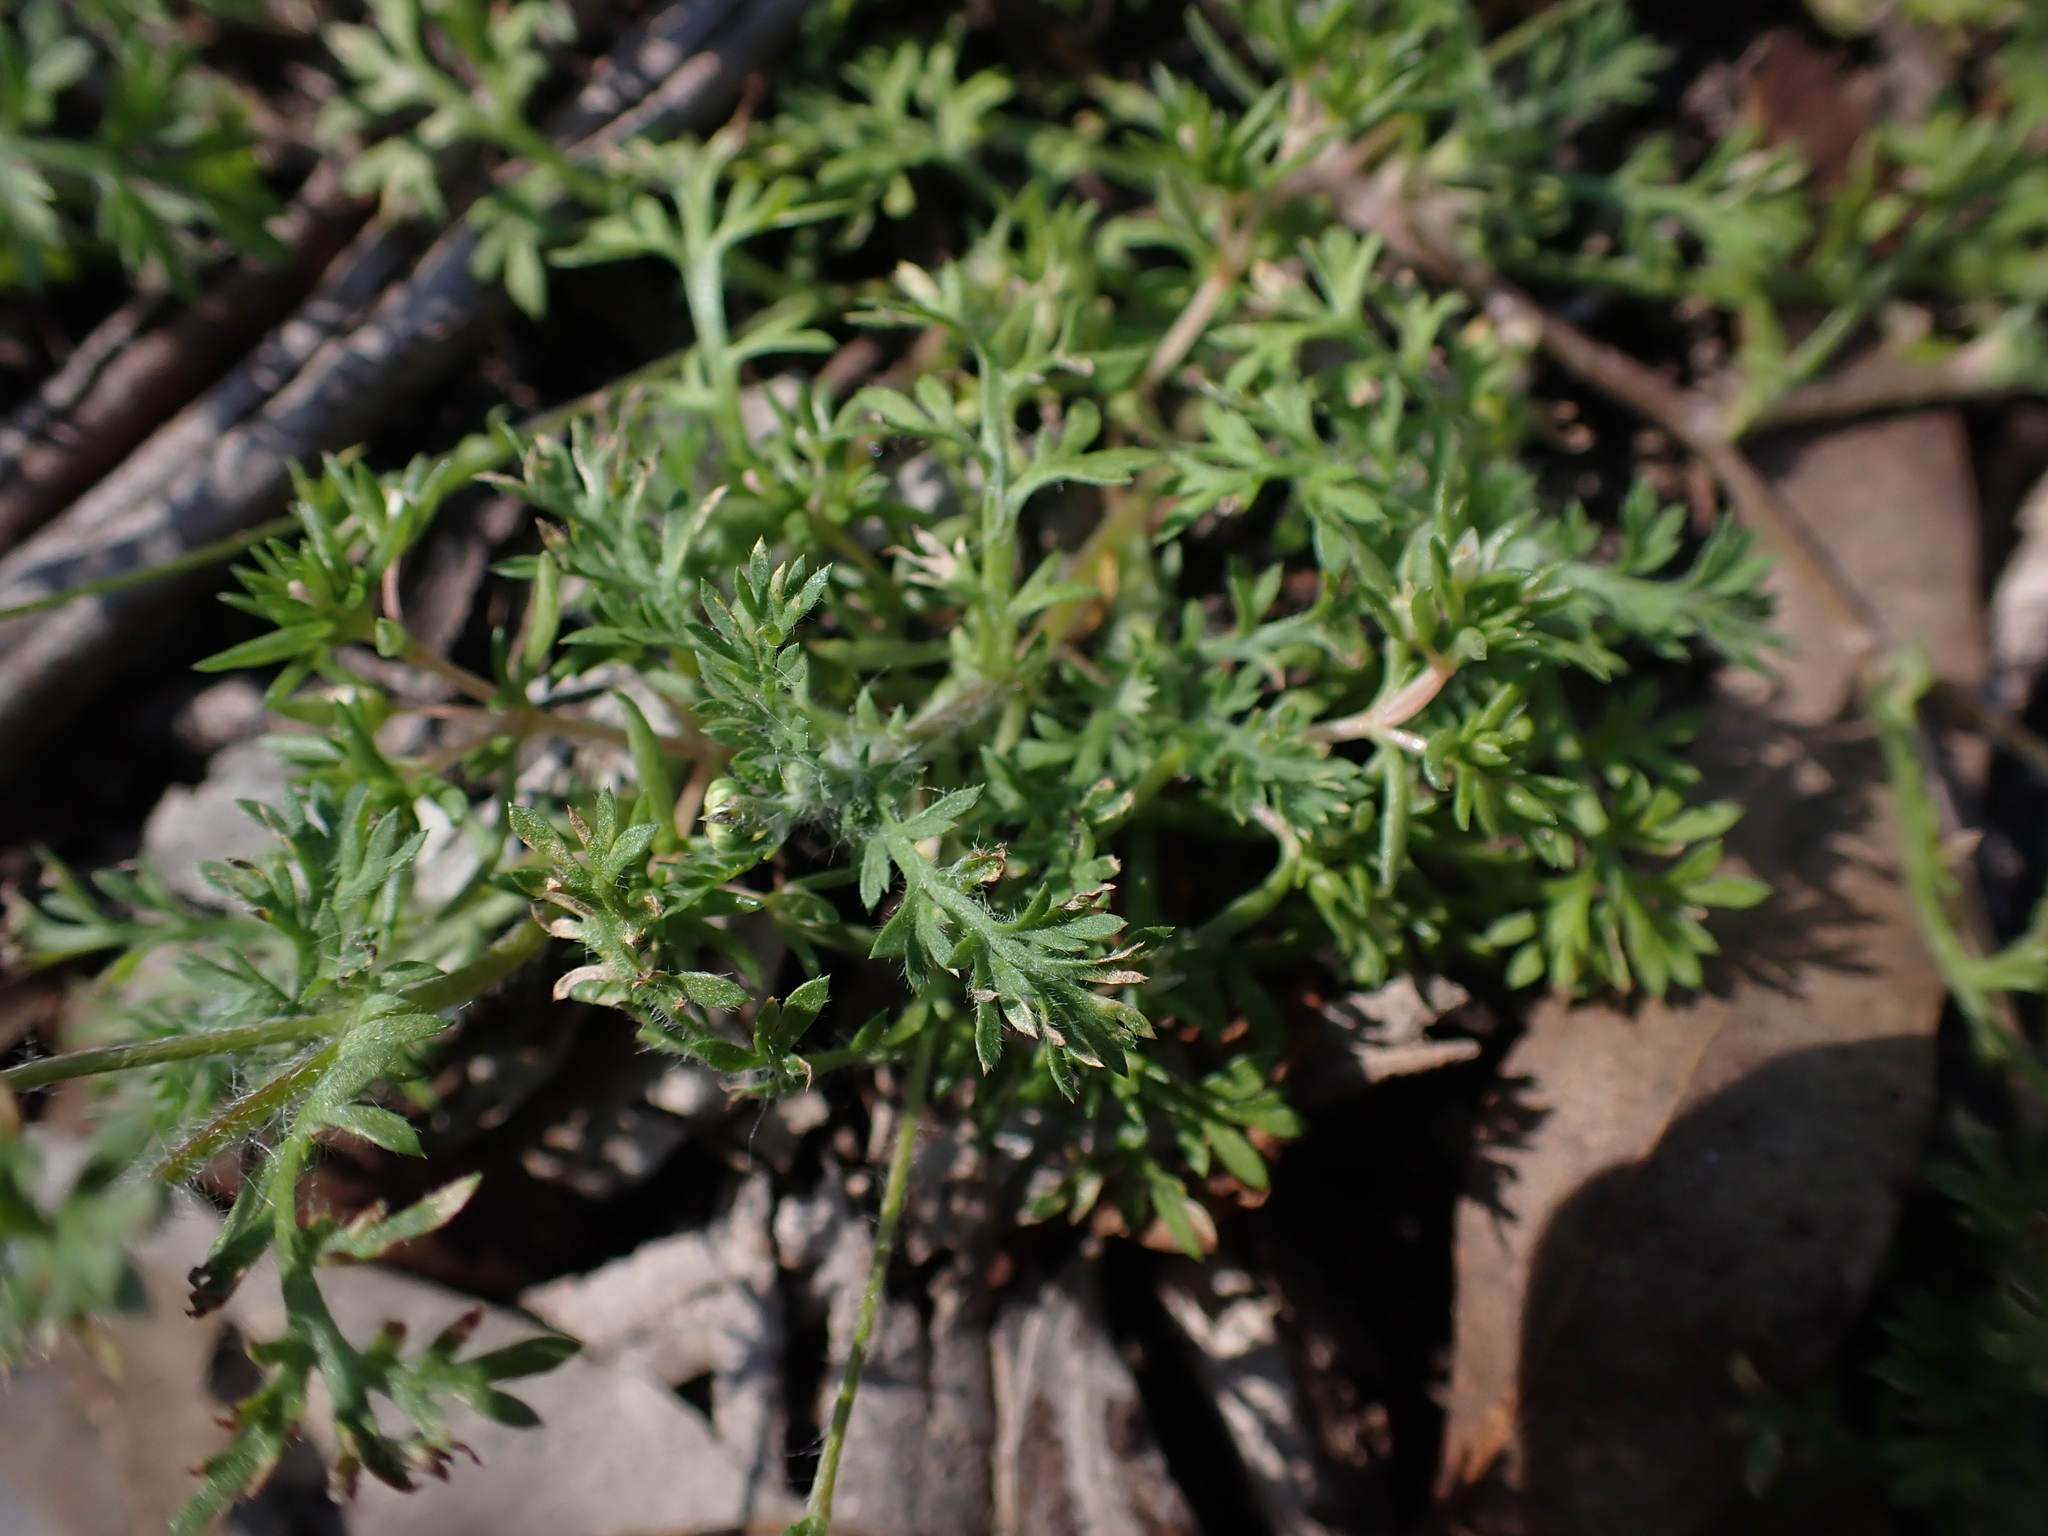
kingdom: Plantae
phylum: Tracheophyta
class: Magnoliopsida
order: Asterales
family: Asteraceae
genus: Cotula
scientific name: Cotula australis
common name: Australian waterbuttons
